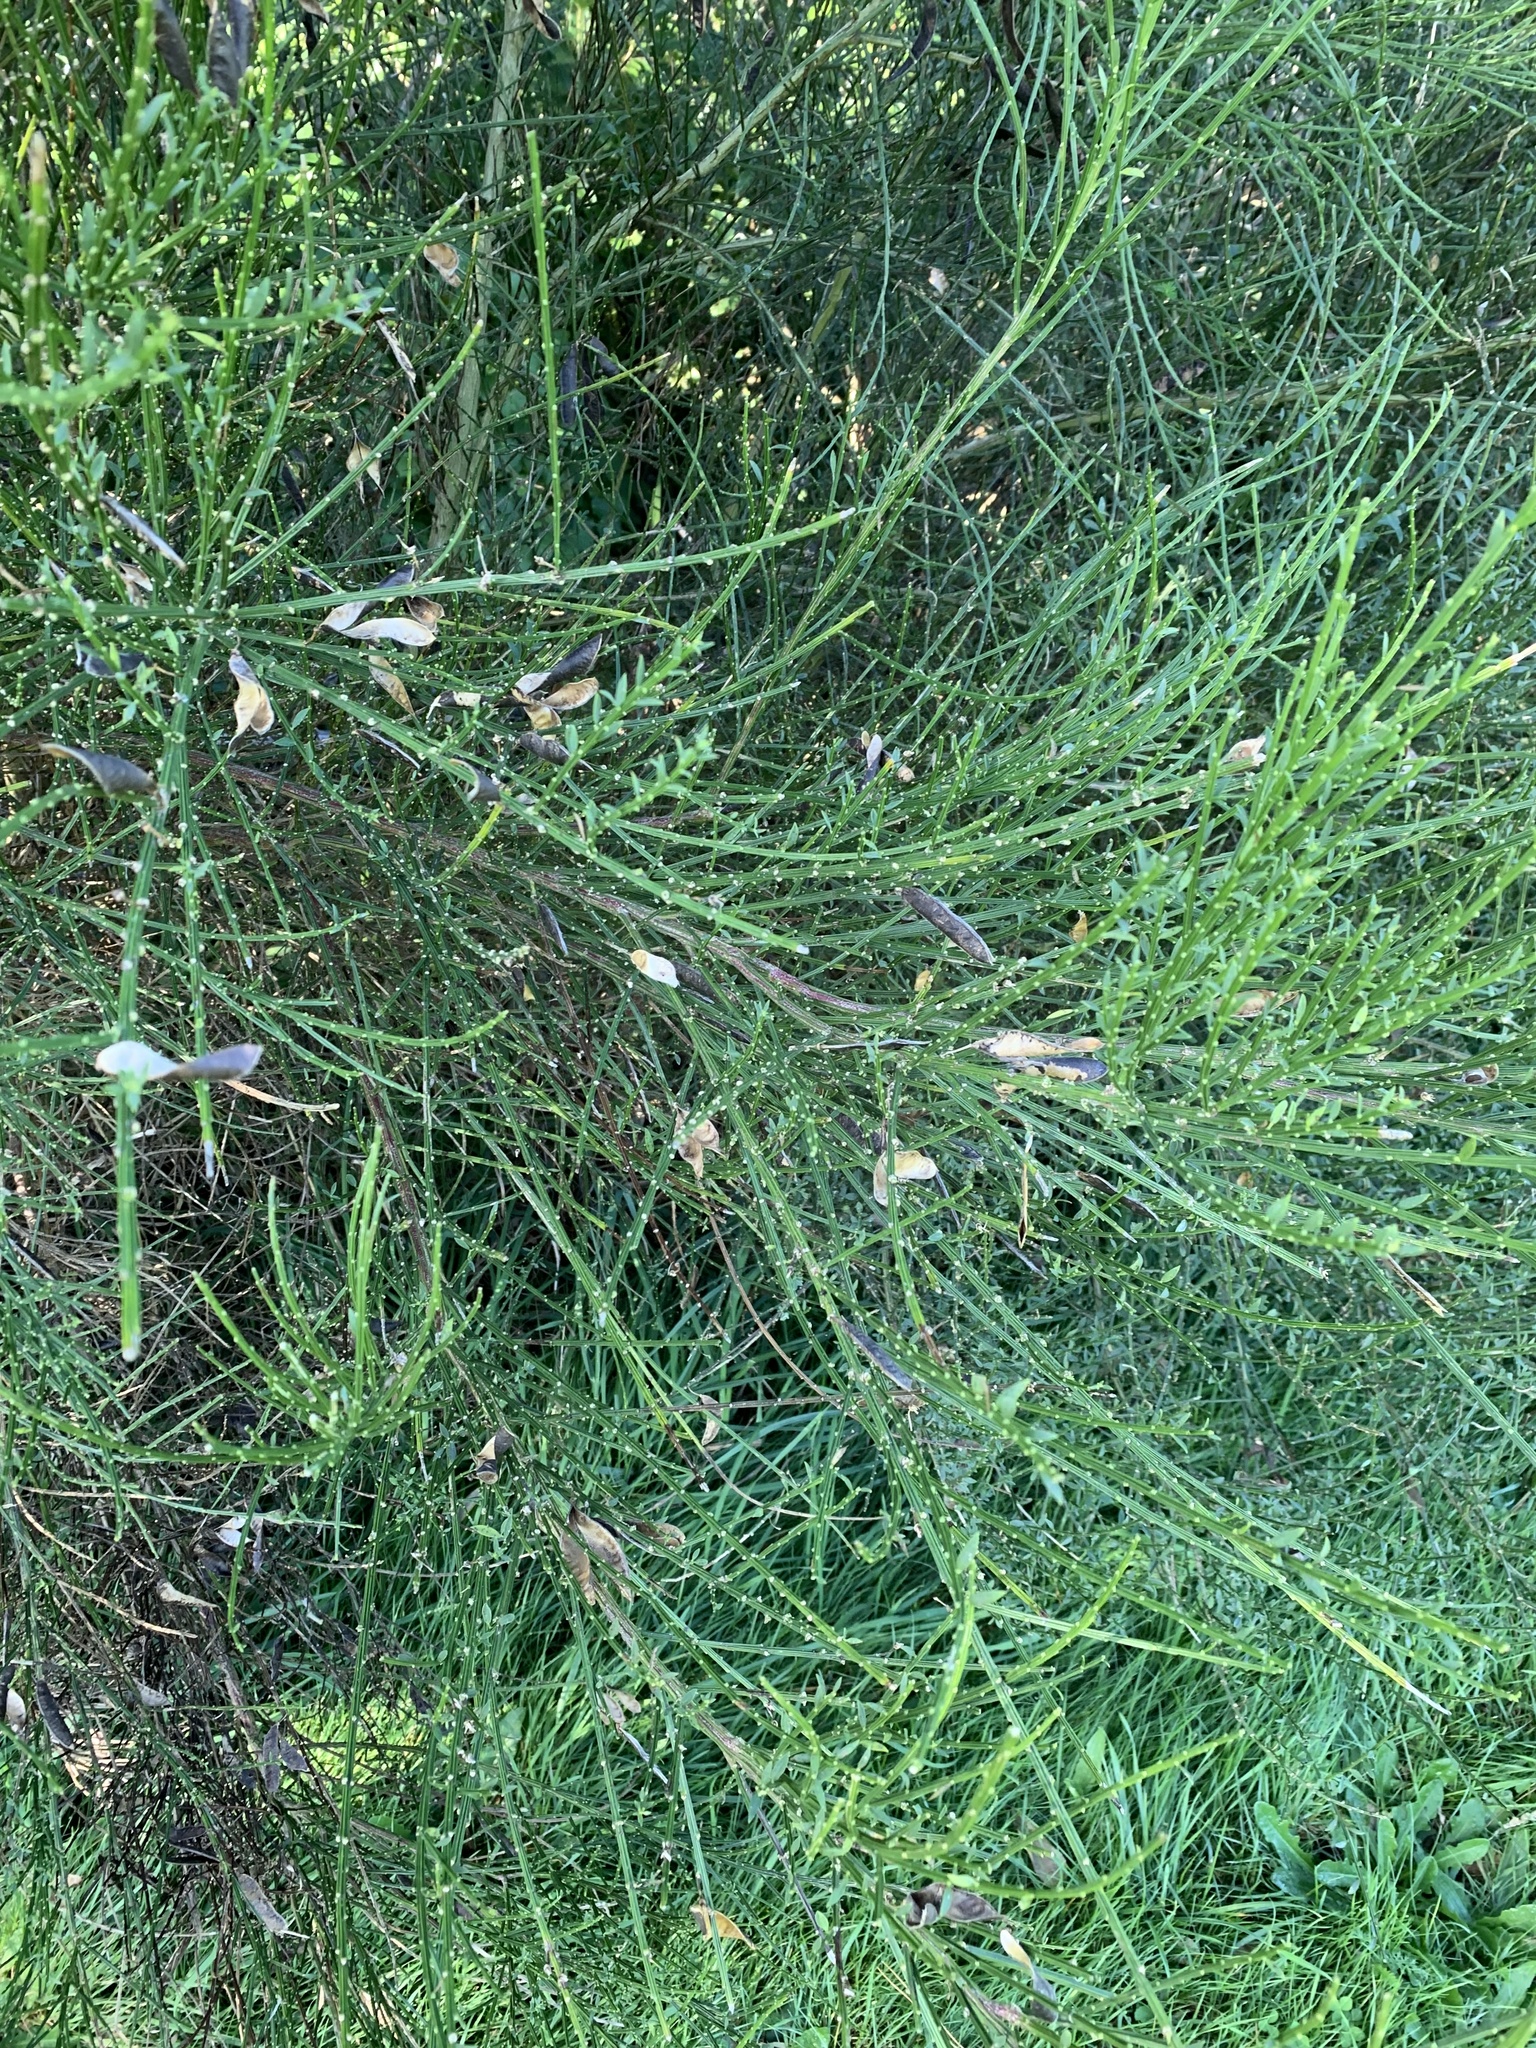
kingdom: Plantae
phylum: Tracheophyta
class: Magnoliopsida
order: Fabales
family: Fabaceae
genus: Cytisus
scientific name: Cytisus scoparius
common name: Scotch broom
